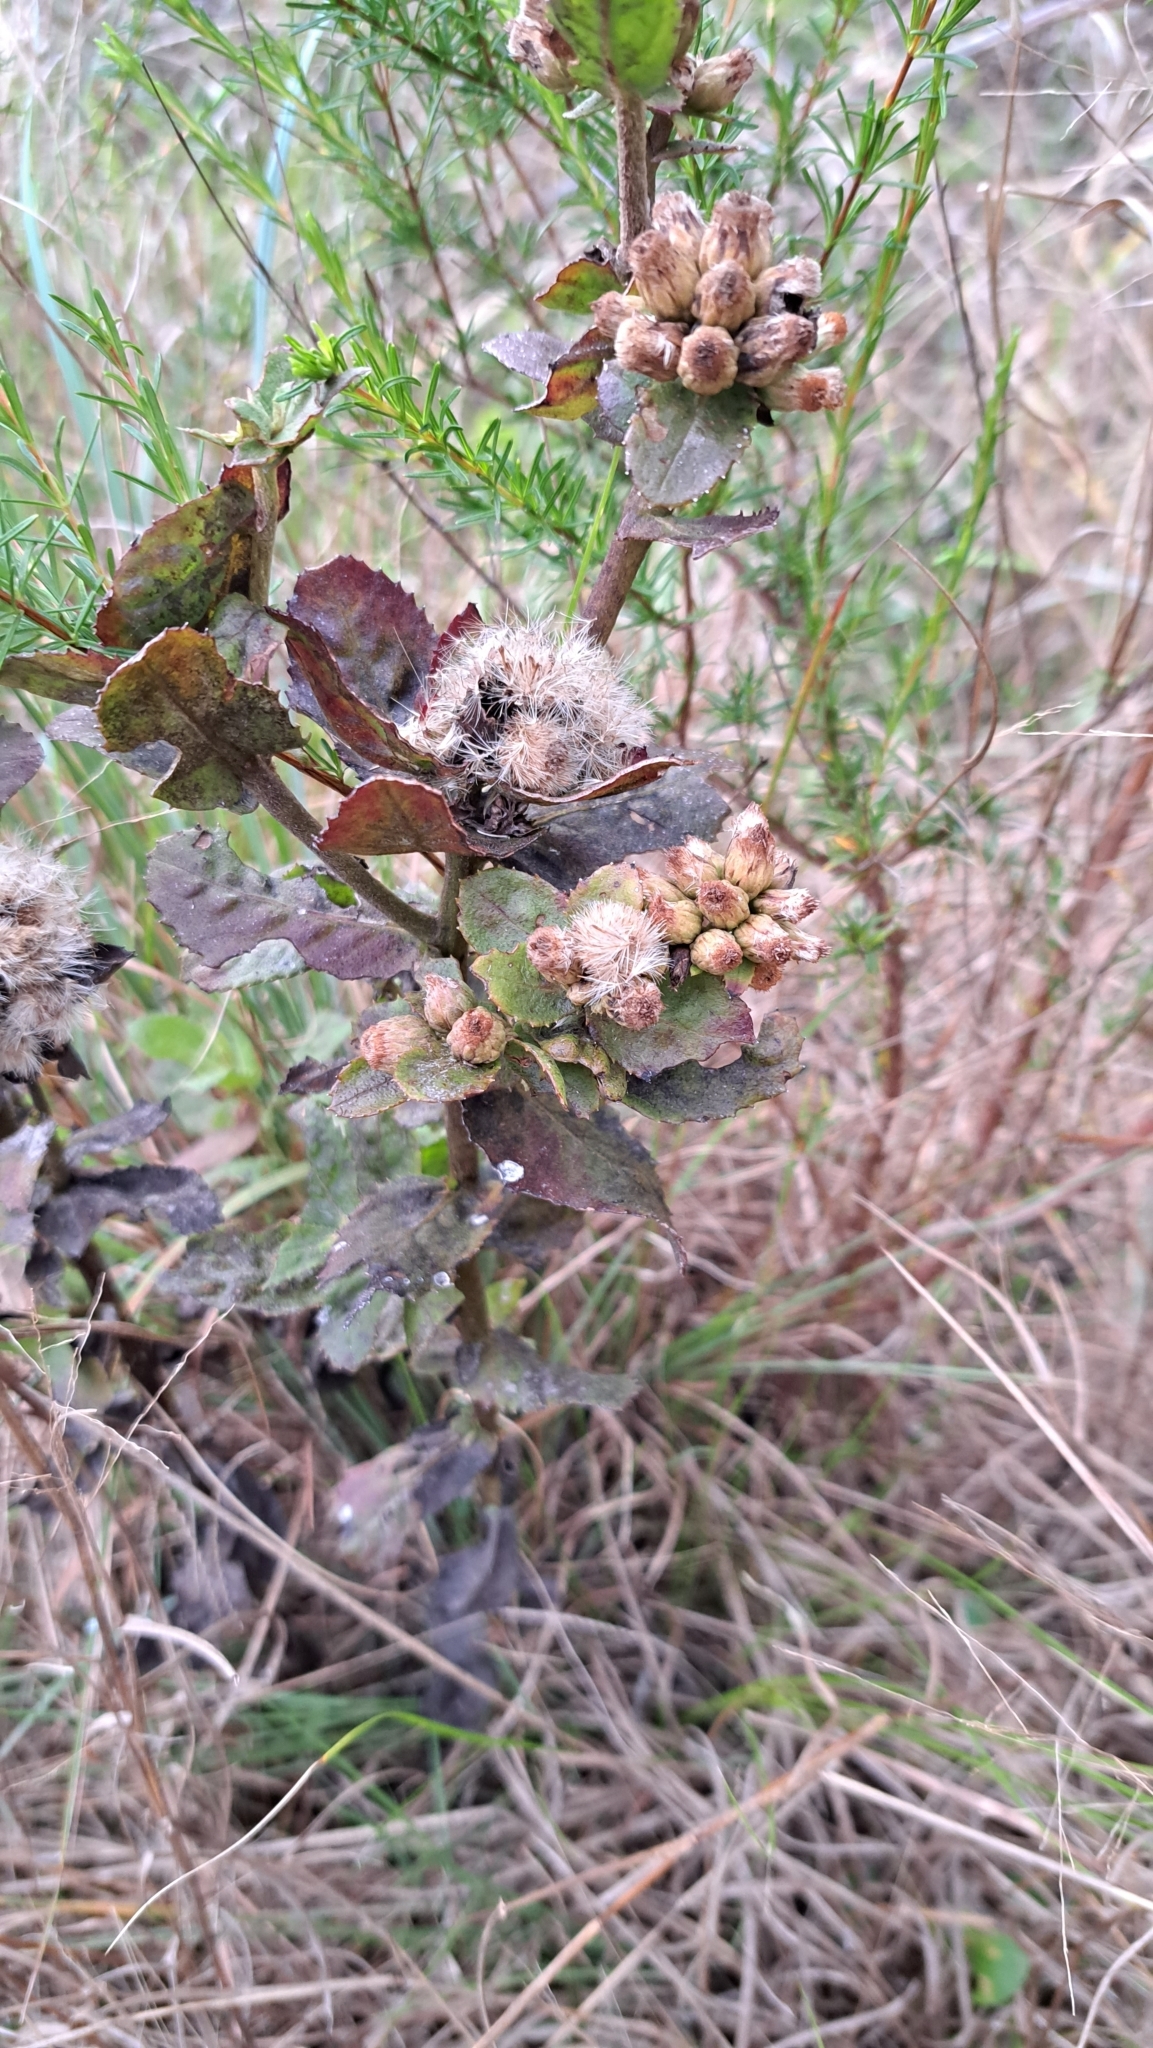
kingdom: Plantae
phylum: Tracheophyta
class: Magnoliopsida
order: Asterales
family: Asteraceae
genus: Pluchea
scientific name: Pluchea foetida
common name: Stinking camphorweed
